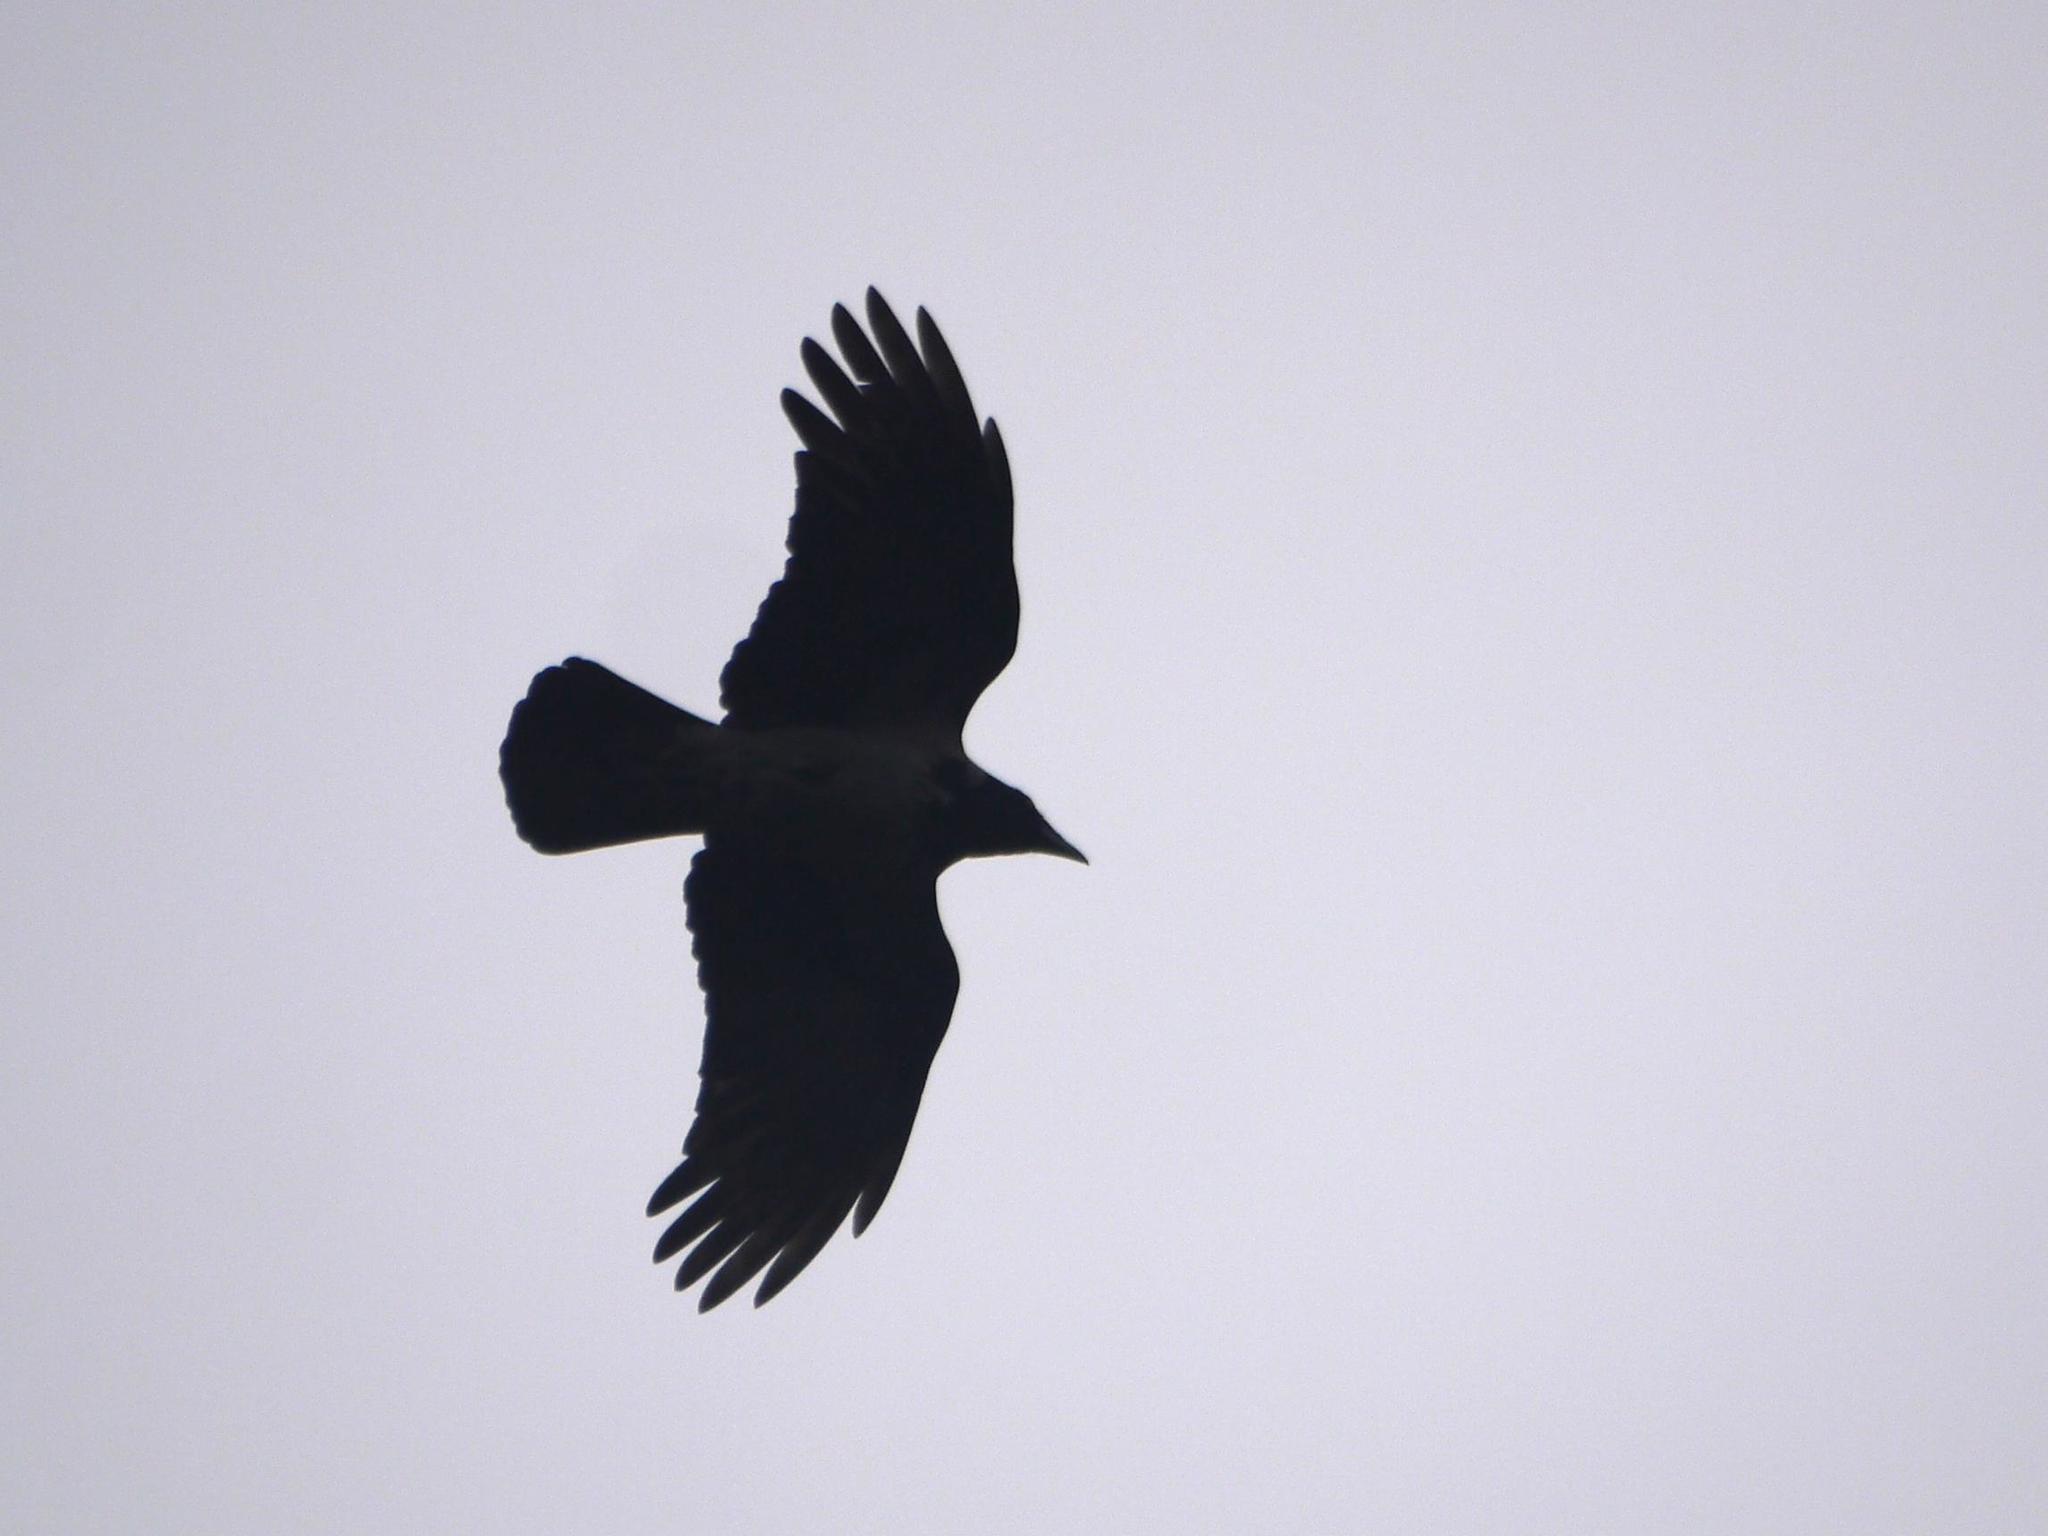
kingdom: Animalia
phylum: Chordata
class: Aves
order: Passeriformes
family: Corvidae
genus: Corvus
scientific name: Corvus cornix
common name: Hooded crow
